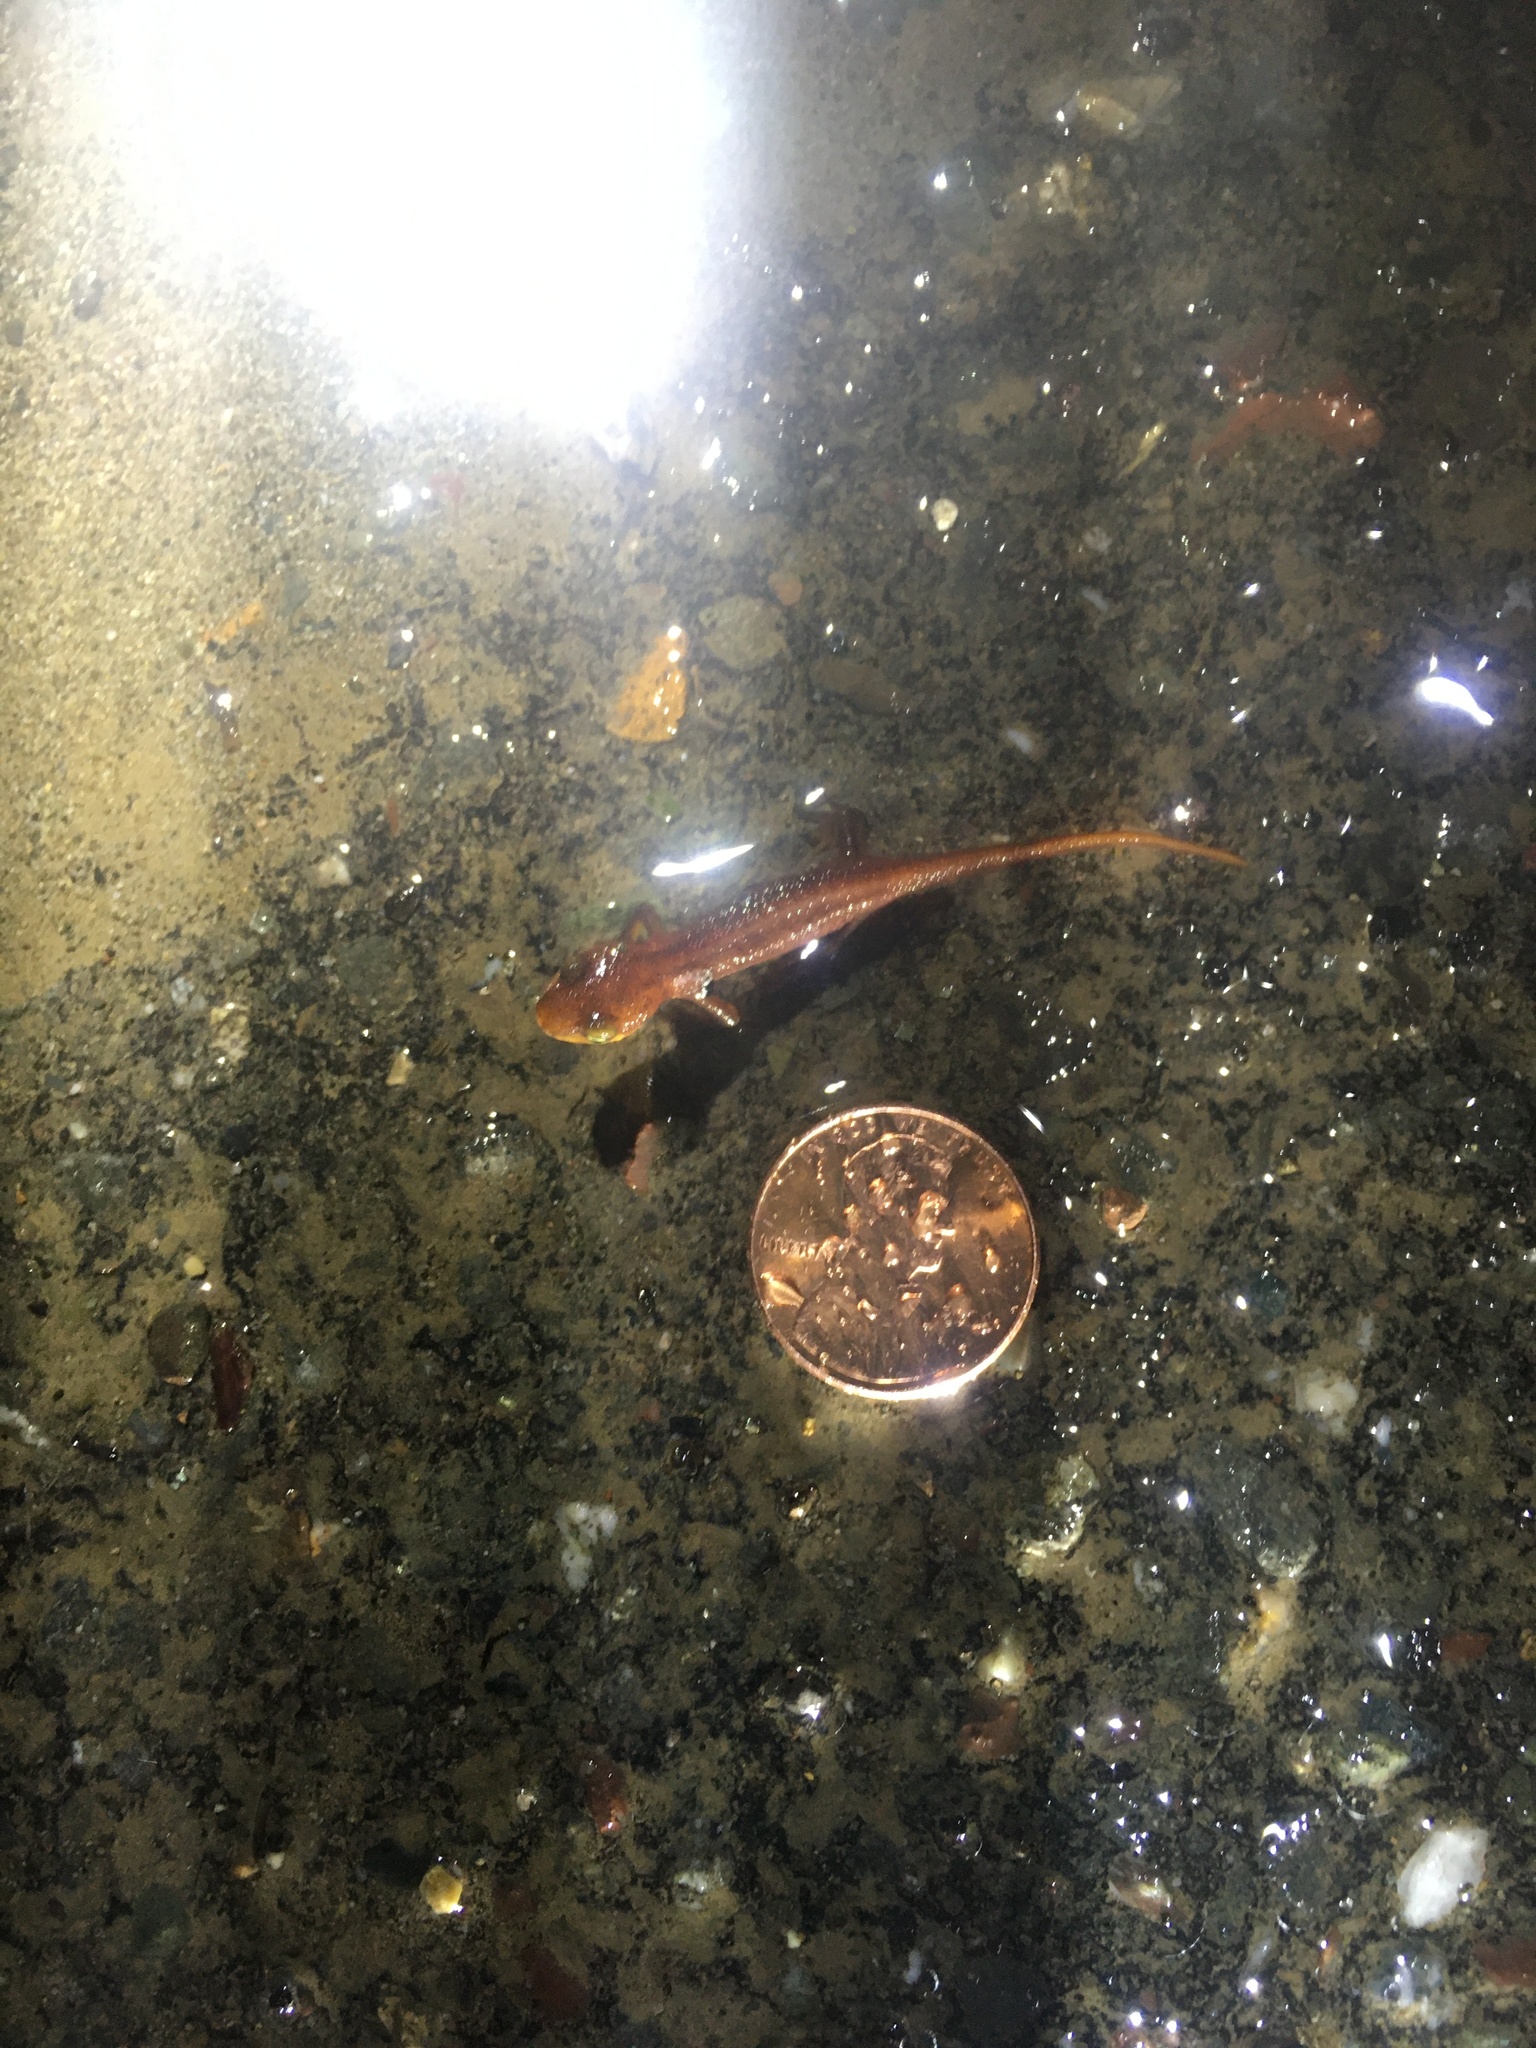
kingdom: Animalia
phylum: Chordata
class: Amphibia
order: Caudata
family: Salamandridae
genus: Taricha
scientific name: Taricha
